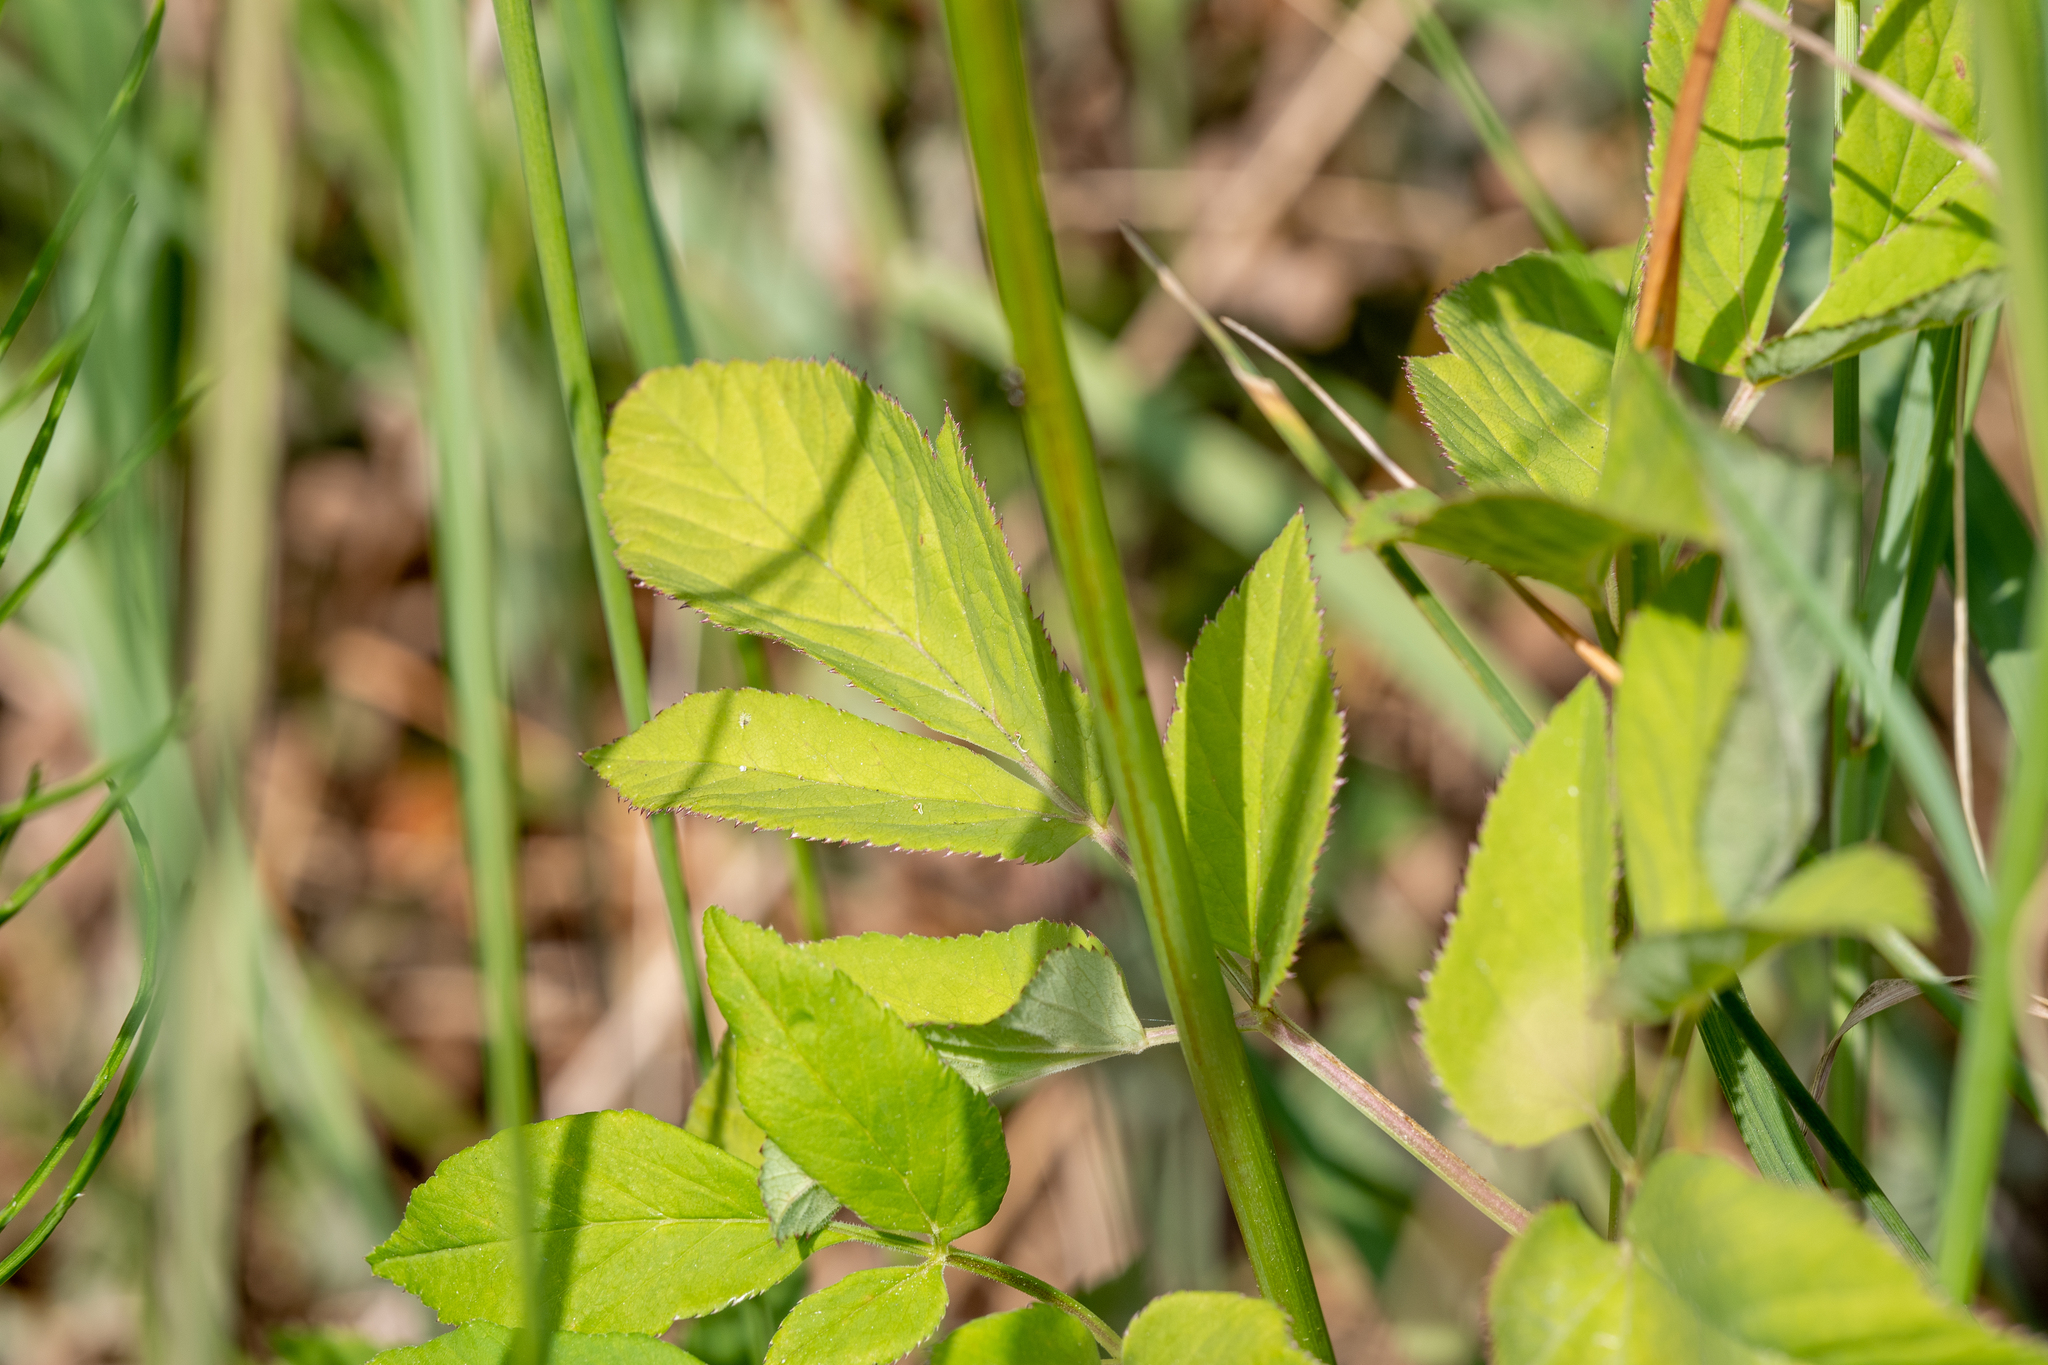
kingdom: Plantae
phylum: Tracheophyta
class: Magnoliopsida
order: Apiales
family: Apiaceae
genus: Aegopodium
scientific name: Aegopodium podagraria
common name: Ground-elder
